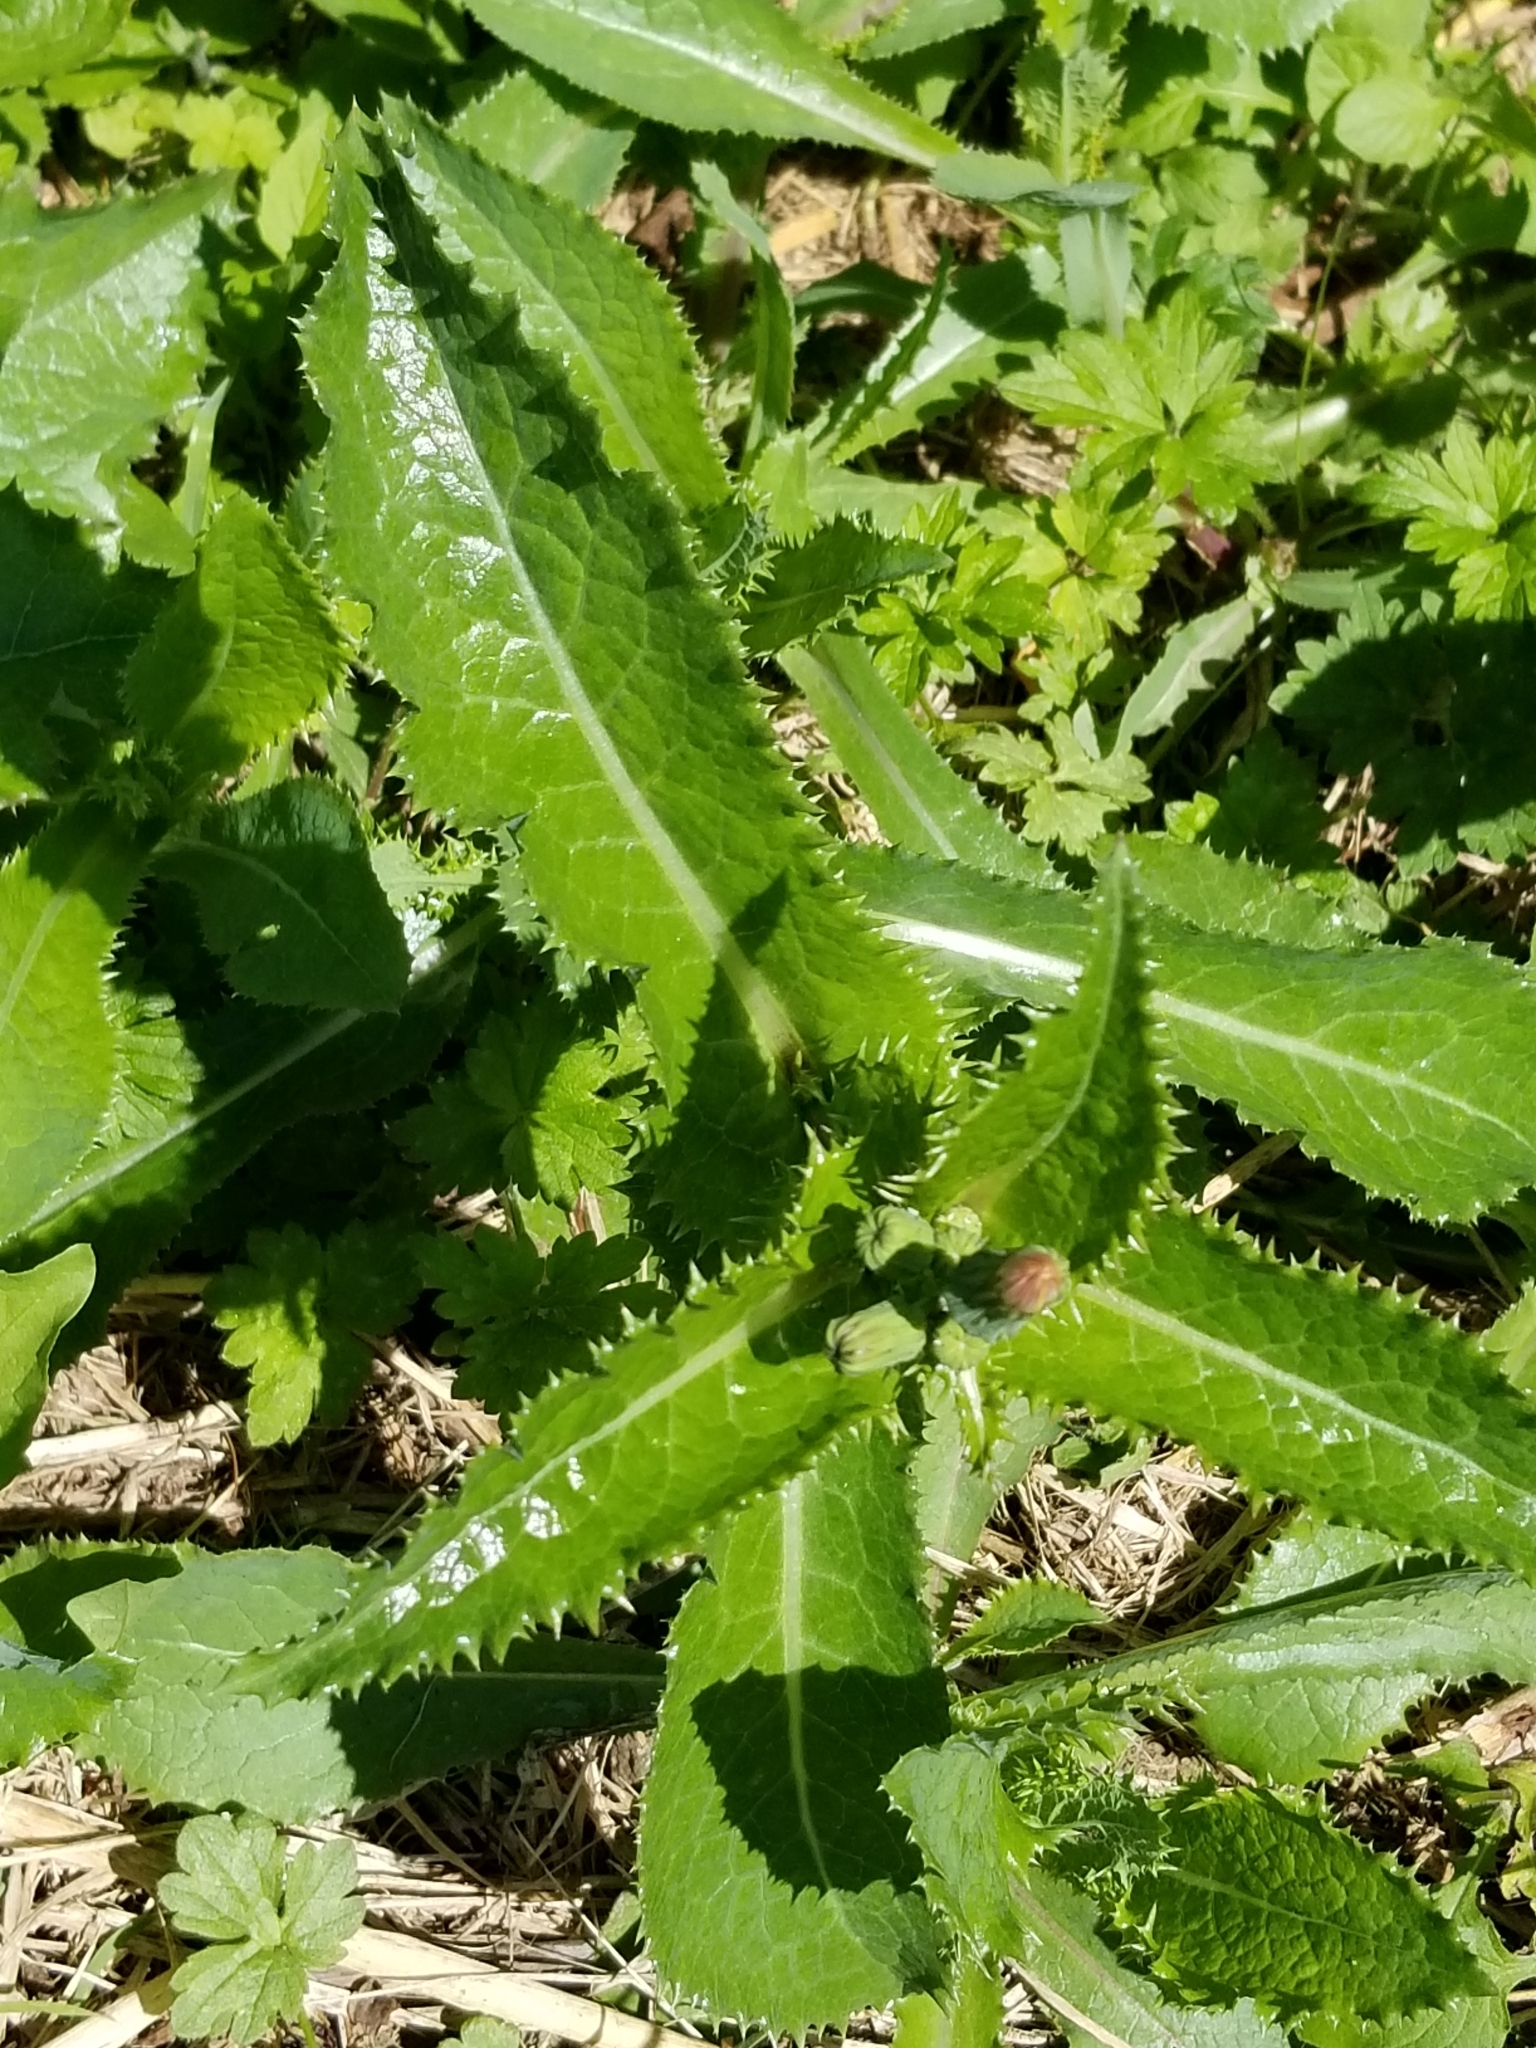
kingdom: Plantae
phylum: Tracheophyta
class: Magnoliopsida
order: Asterales
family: Asteraceae
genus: Sonchus
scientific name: Sonchus asper
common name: Prickly sow-thistle
